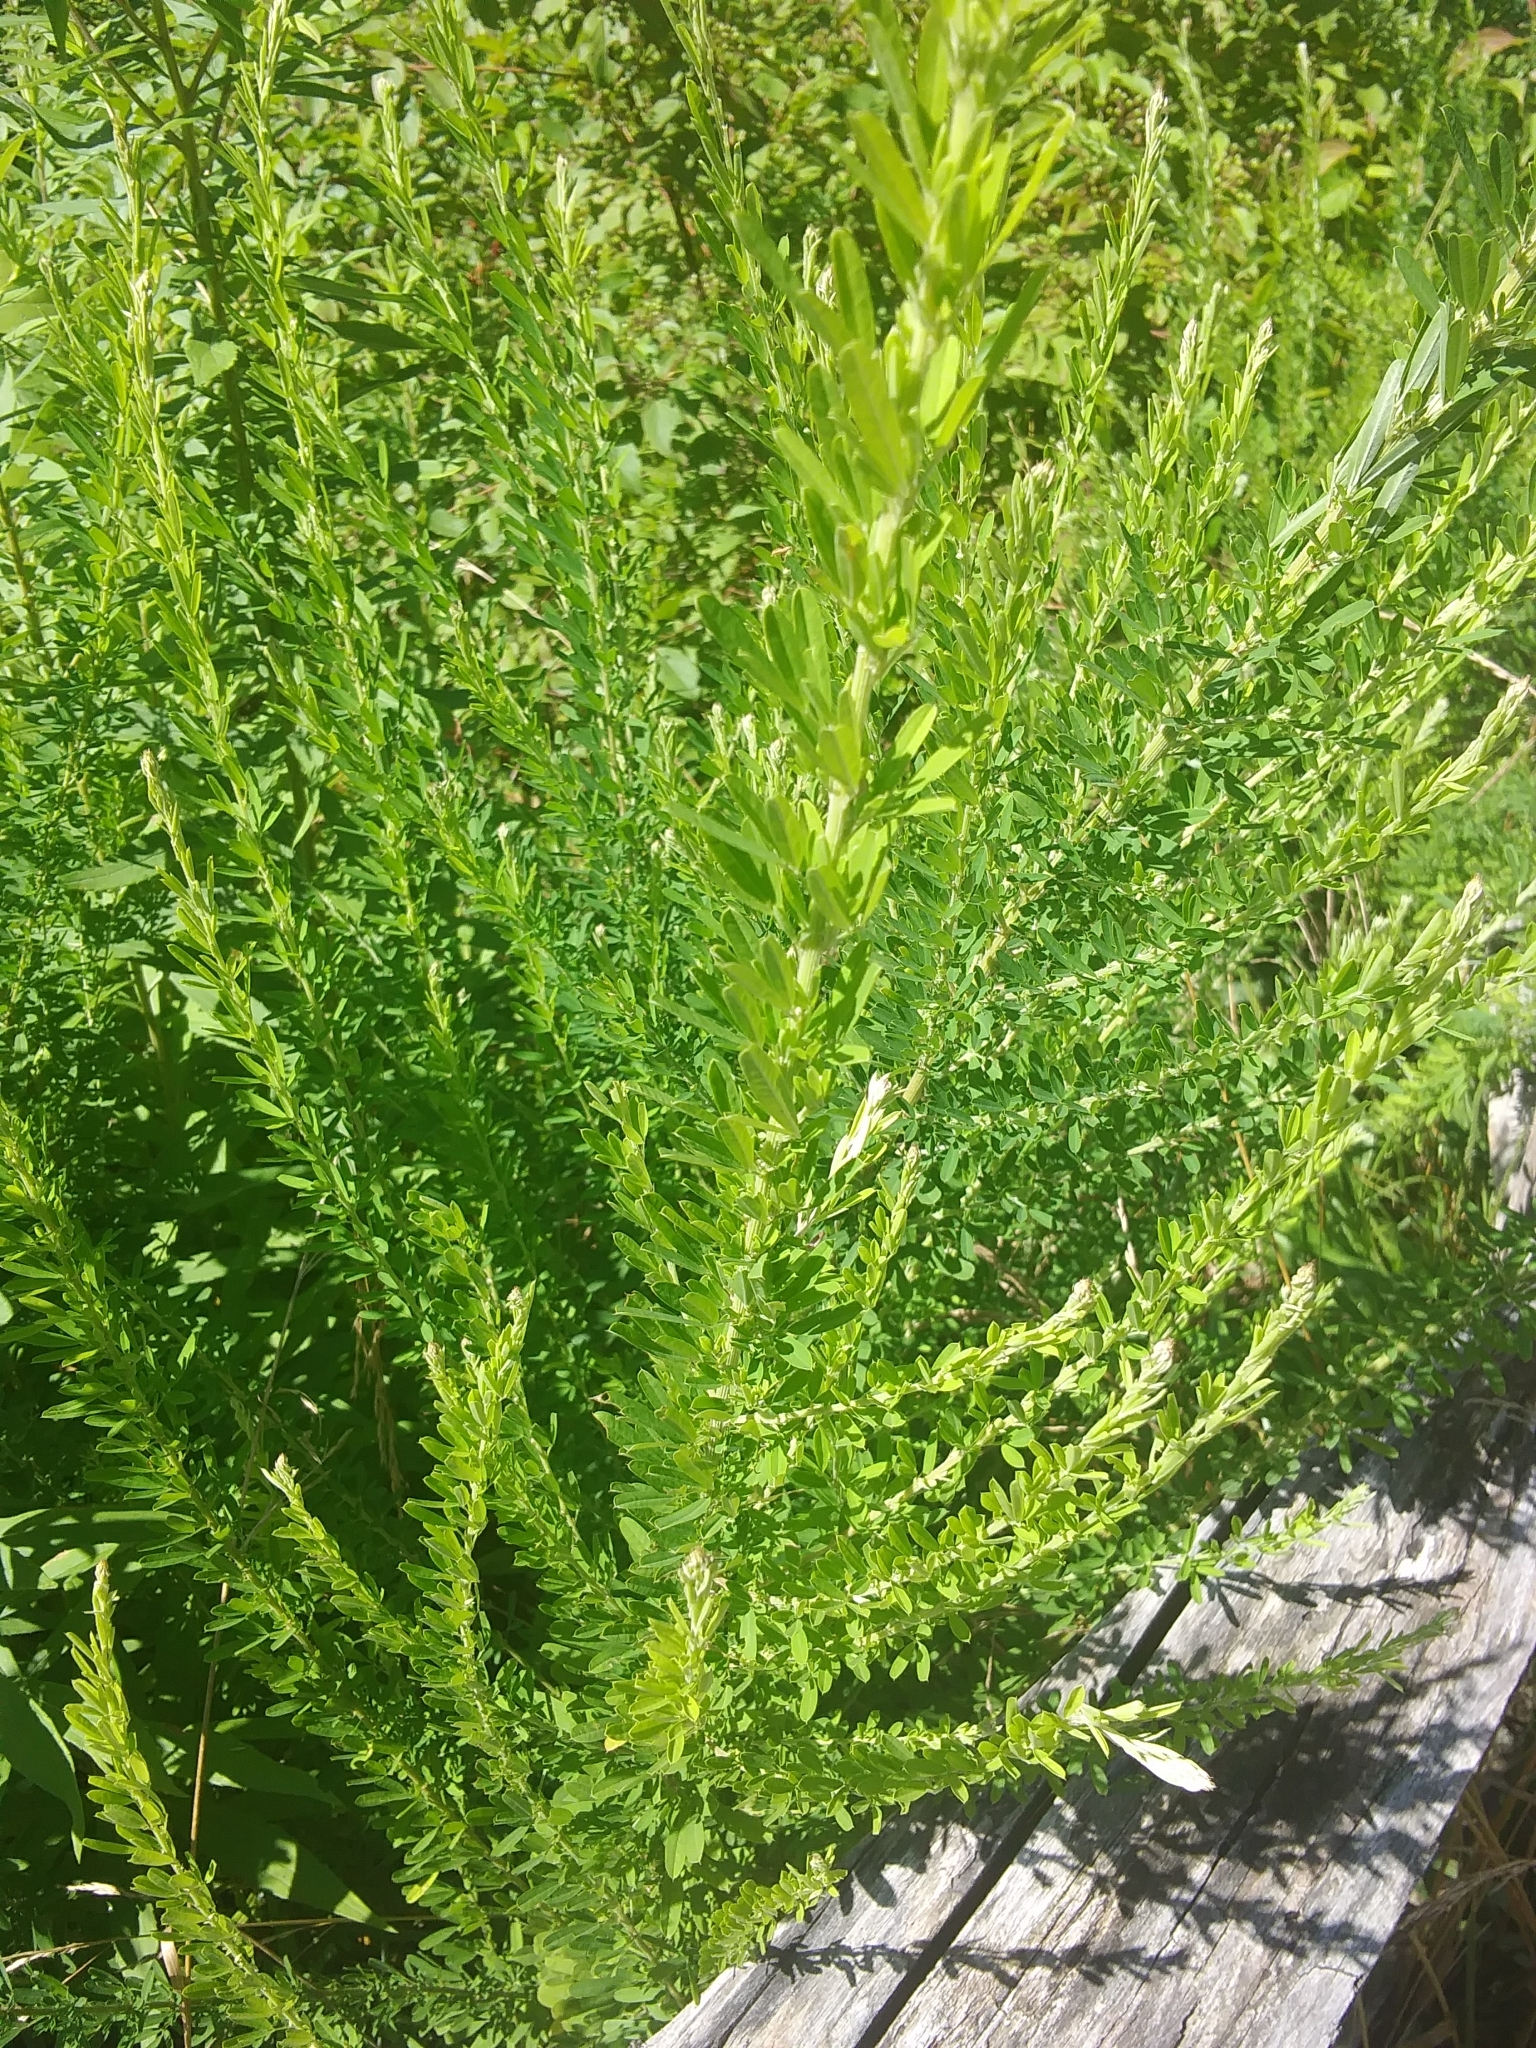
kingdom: Plantae
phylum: Tracheophyta
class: Magnoliopsida
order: Fabales
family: Fabaceae
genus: Lespedeza
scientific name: Lespedeza cuneata
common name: Chinese bush-clover
